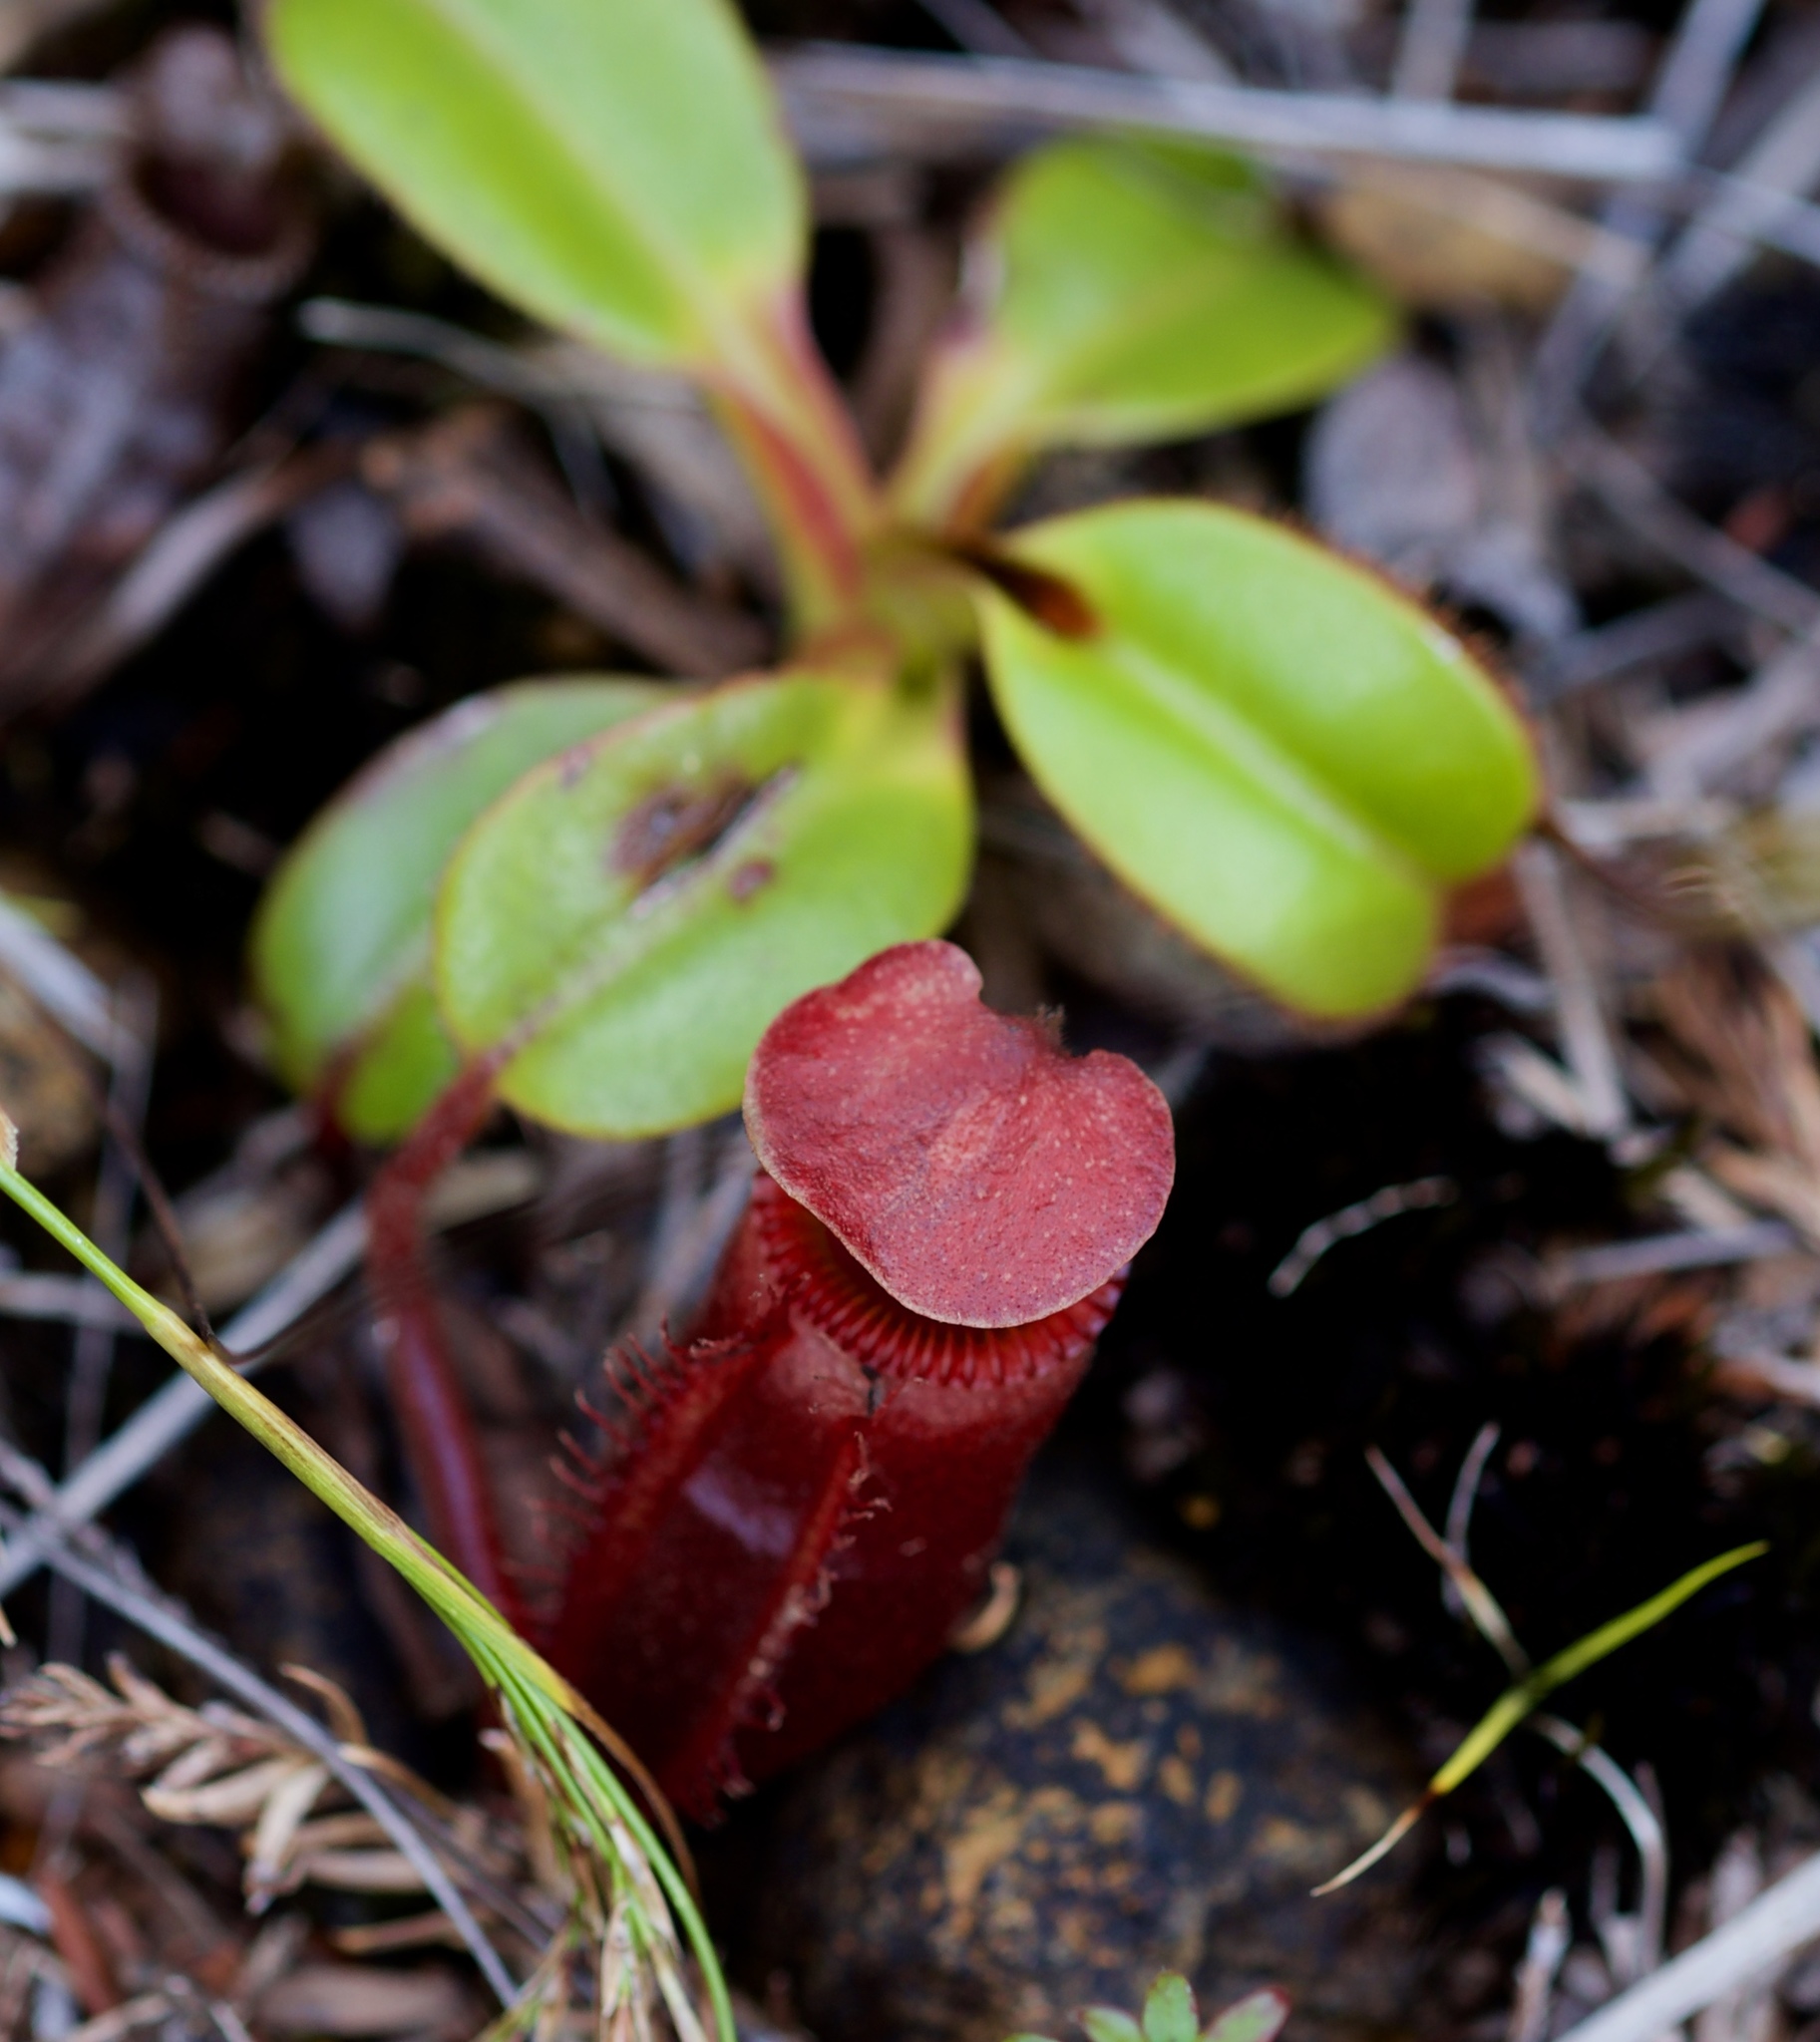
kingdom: Plantae
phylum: Tracheophyta
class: Magnoliopsida
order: Caryophyllales
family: Nepenthaceae
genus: Nepenthes
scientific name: Nepenthes villosa
